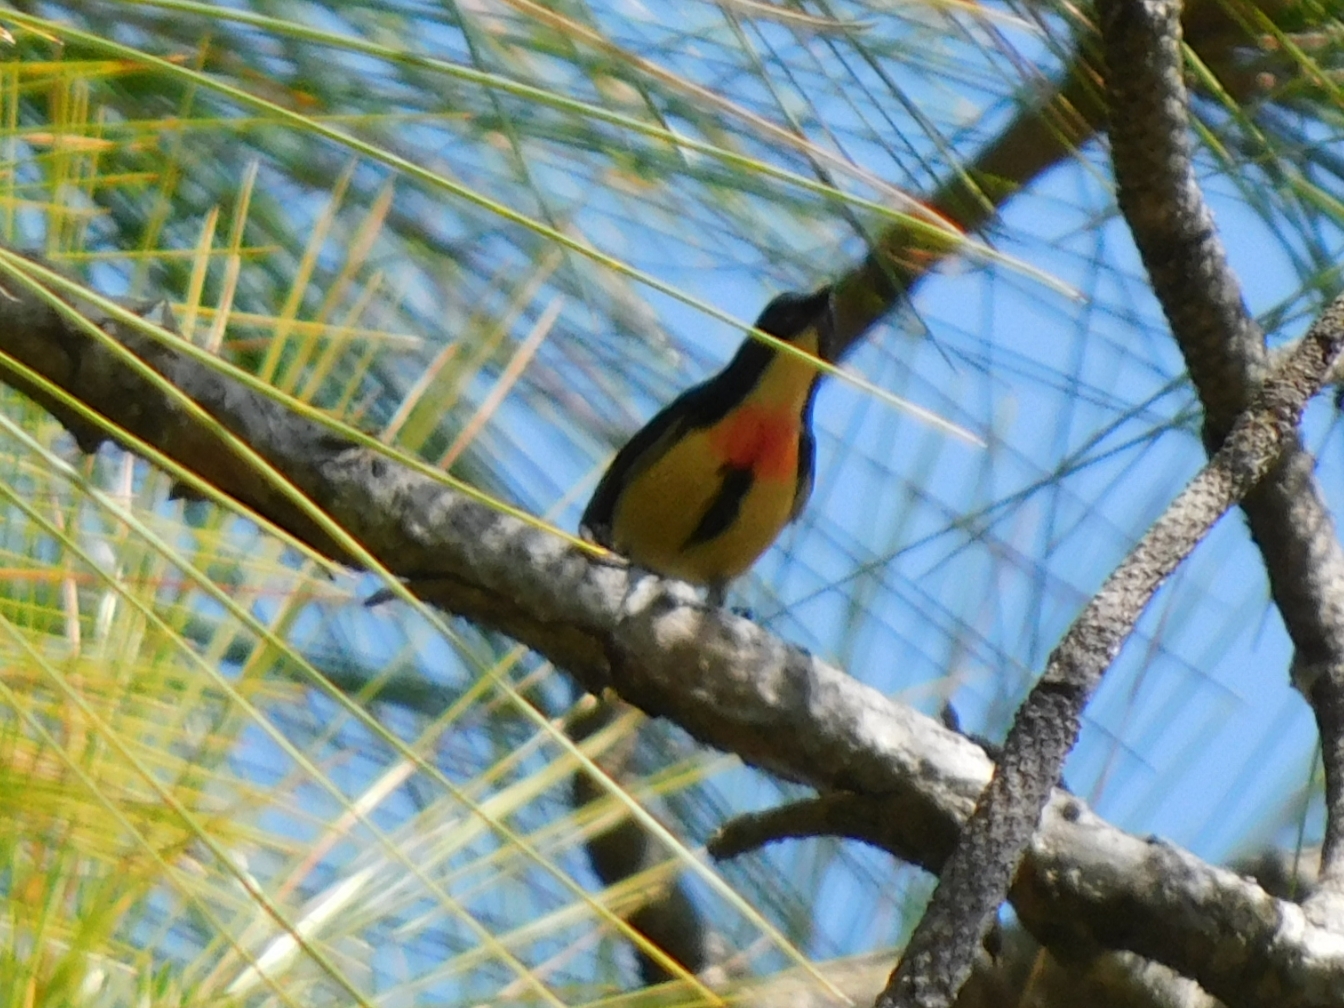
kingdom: Animalia
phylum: Chordata
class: Aves
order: Passeriformes
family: Dicaeidae
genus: Dicaeum
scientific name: Dicaeum ignipectus
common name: Fire-breasted flowerpecker
